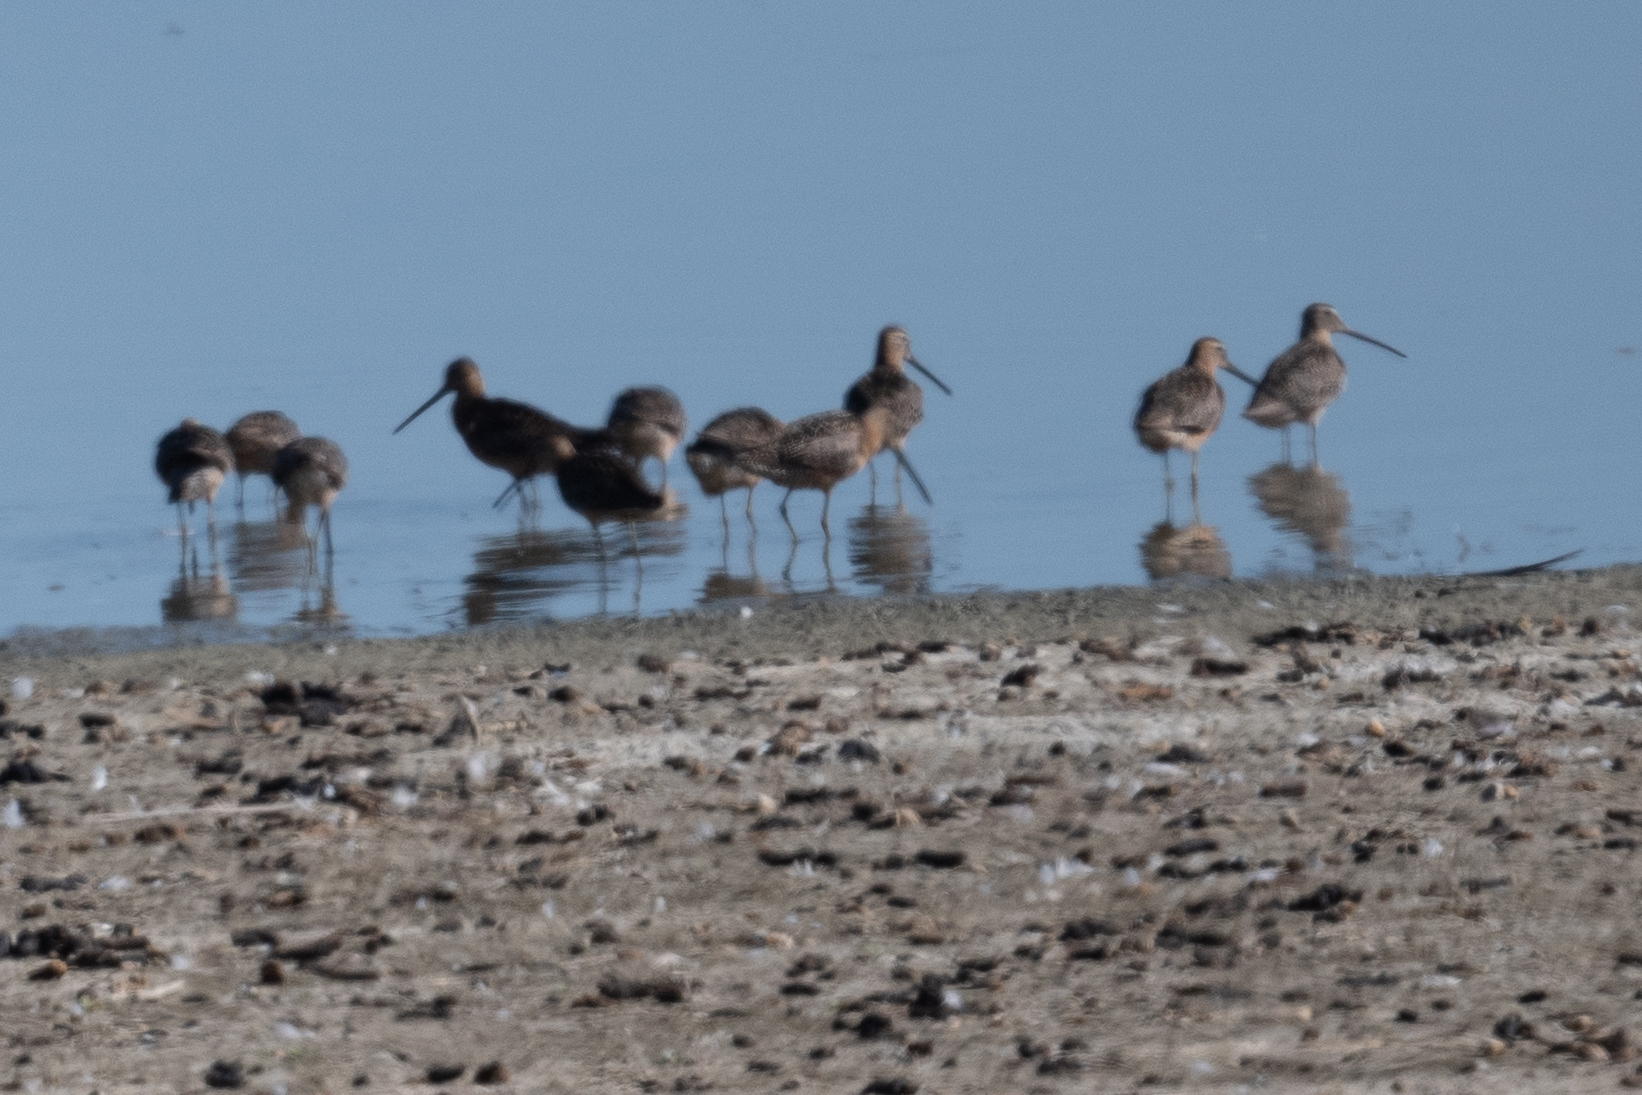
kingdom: Animalia
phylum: Chordata
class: Aves
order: Charadriiformes
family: Scolopacidae
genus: Limnodromus
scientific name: Limnodromus scolopaceus
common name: Long-billed dowitcher
